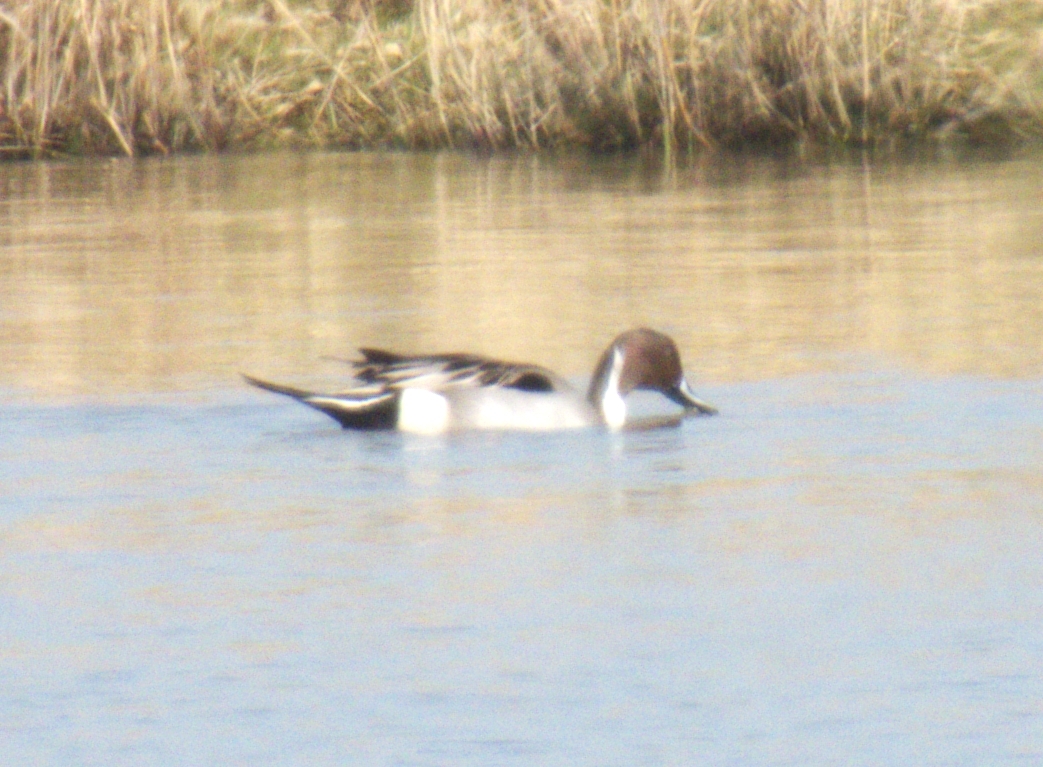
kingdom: Animalia
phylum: Chordata
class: Aves
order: Anseriformes
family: Anatidae
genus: Anas
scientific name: Anas acuta
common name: Northern pintail
